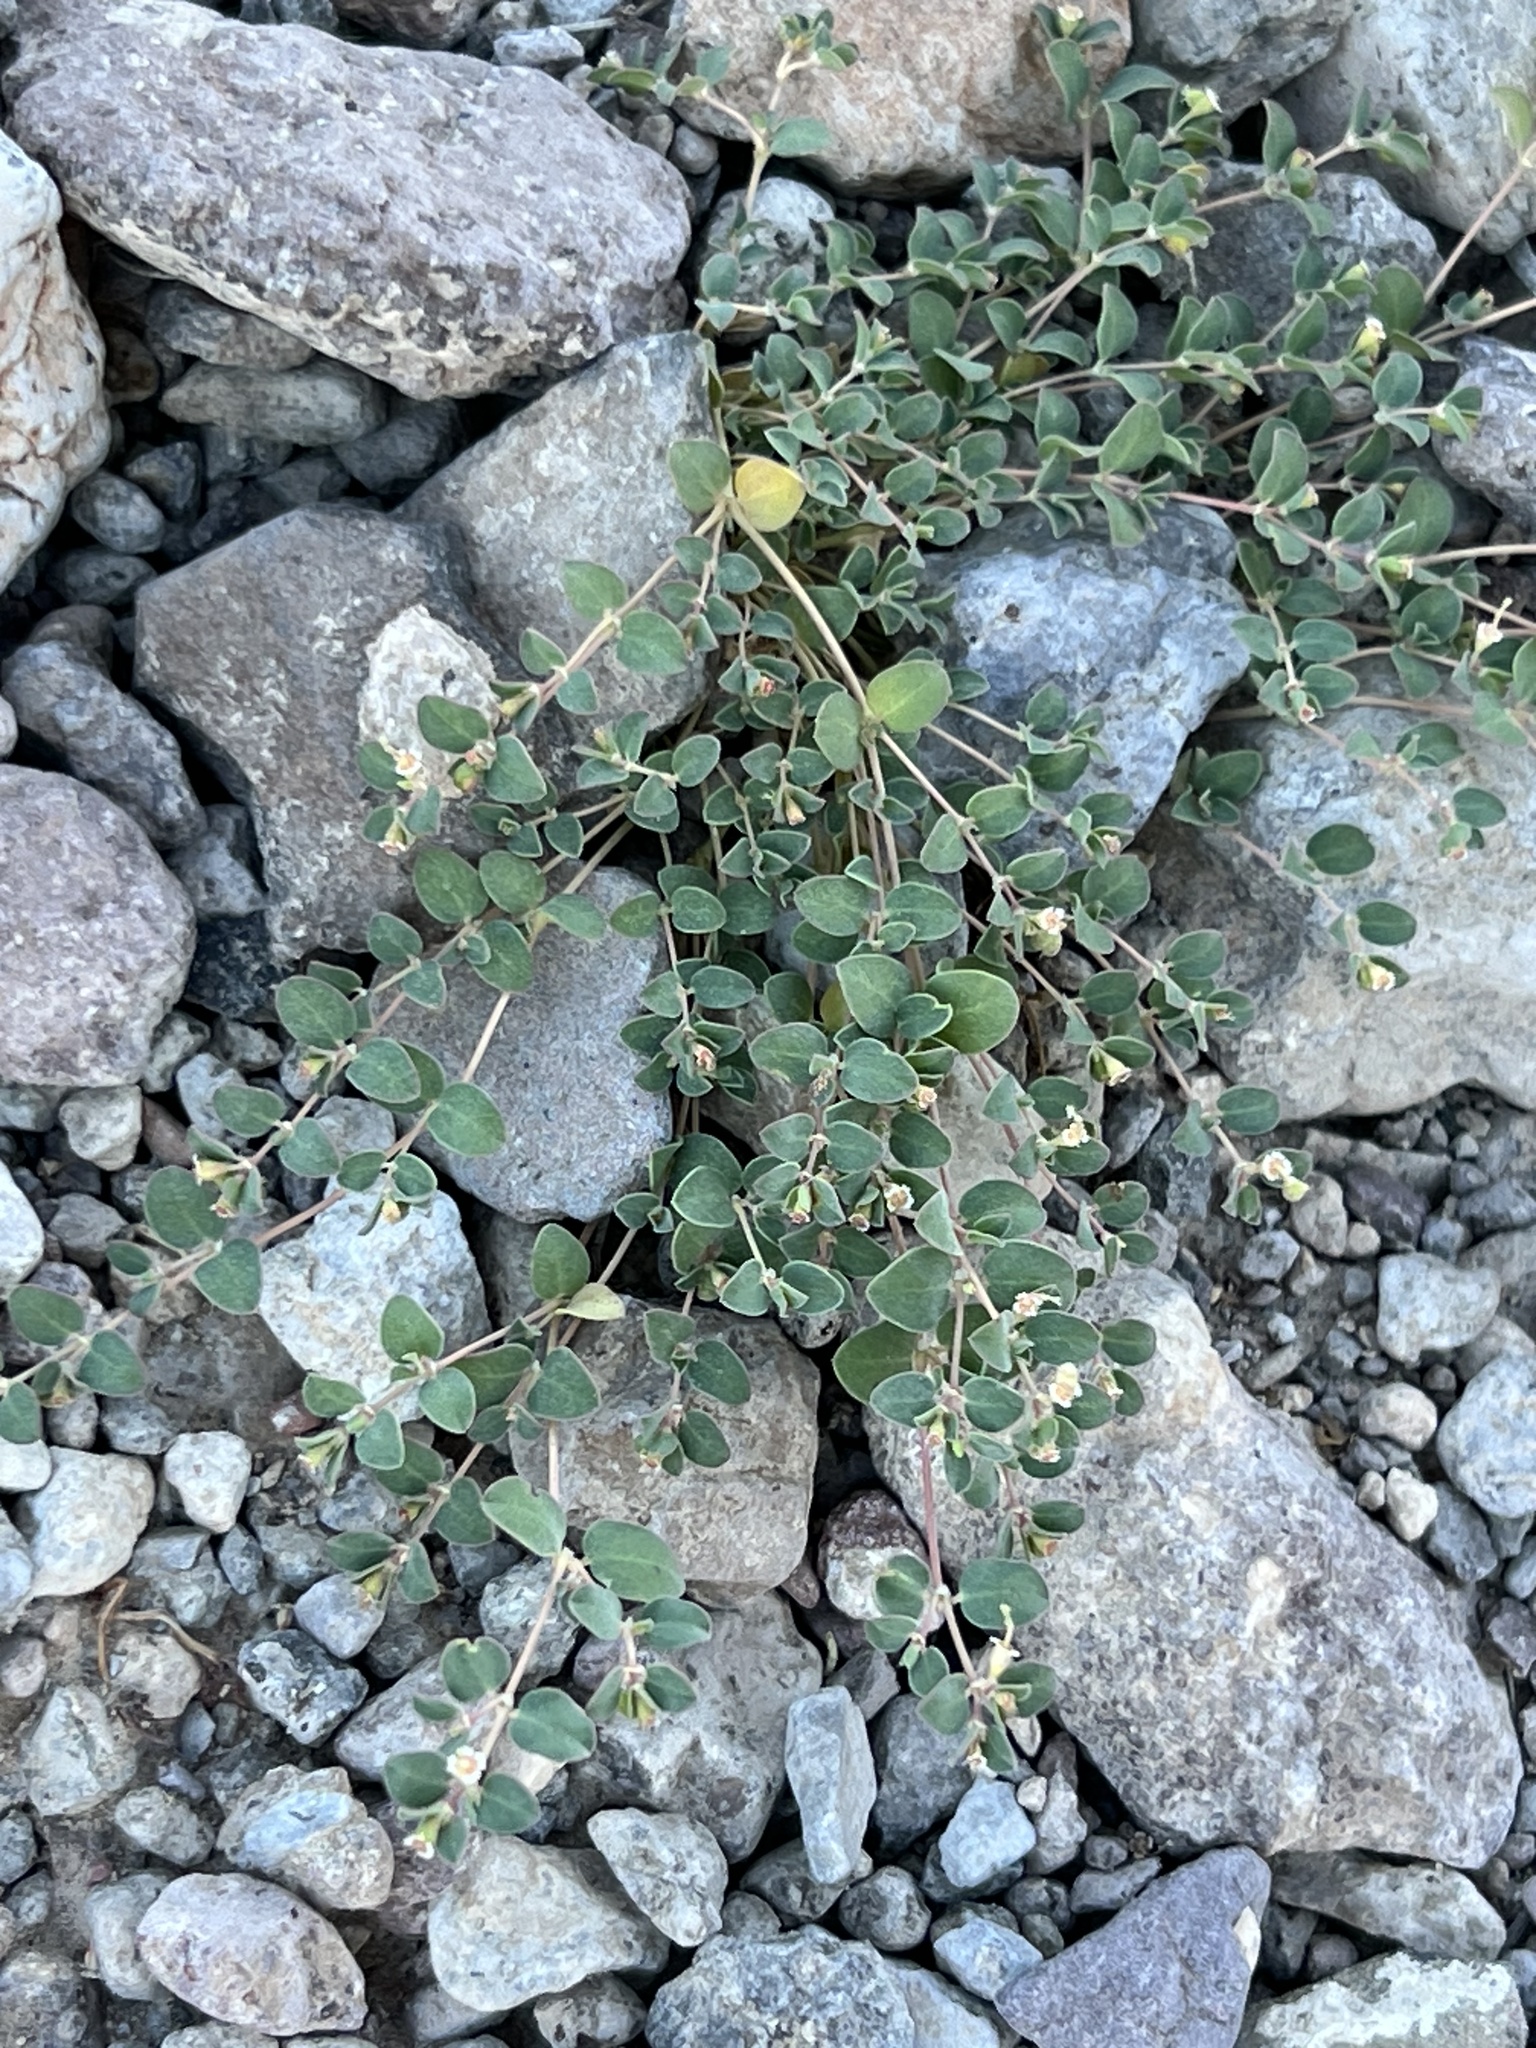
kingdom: Plantae
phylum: Tracheophyta
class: Magnoliopsida
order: Malpighiales
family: Euphorbiaceae
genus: Euphorbia
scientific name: Euphorbia albomarginata
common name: Whitemargin sandmat
